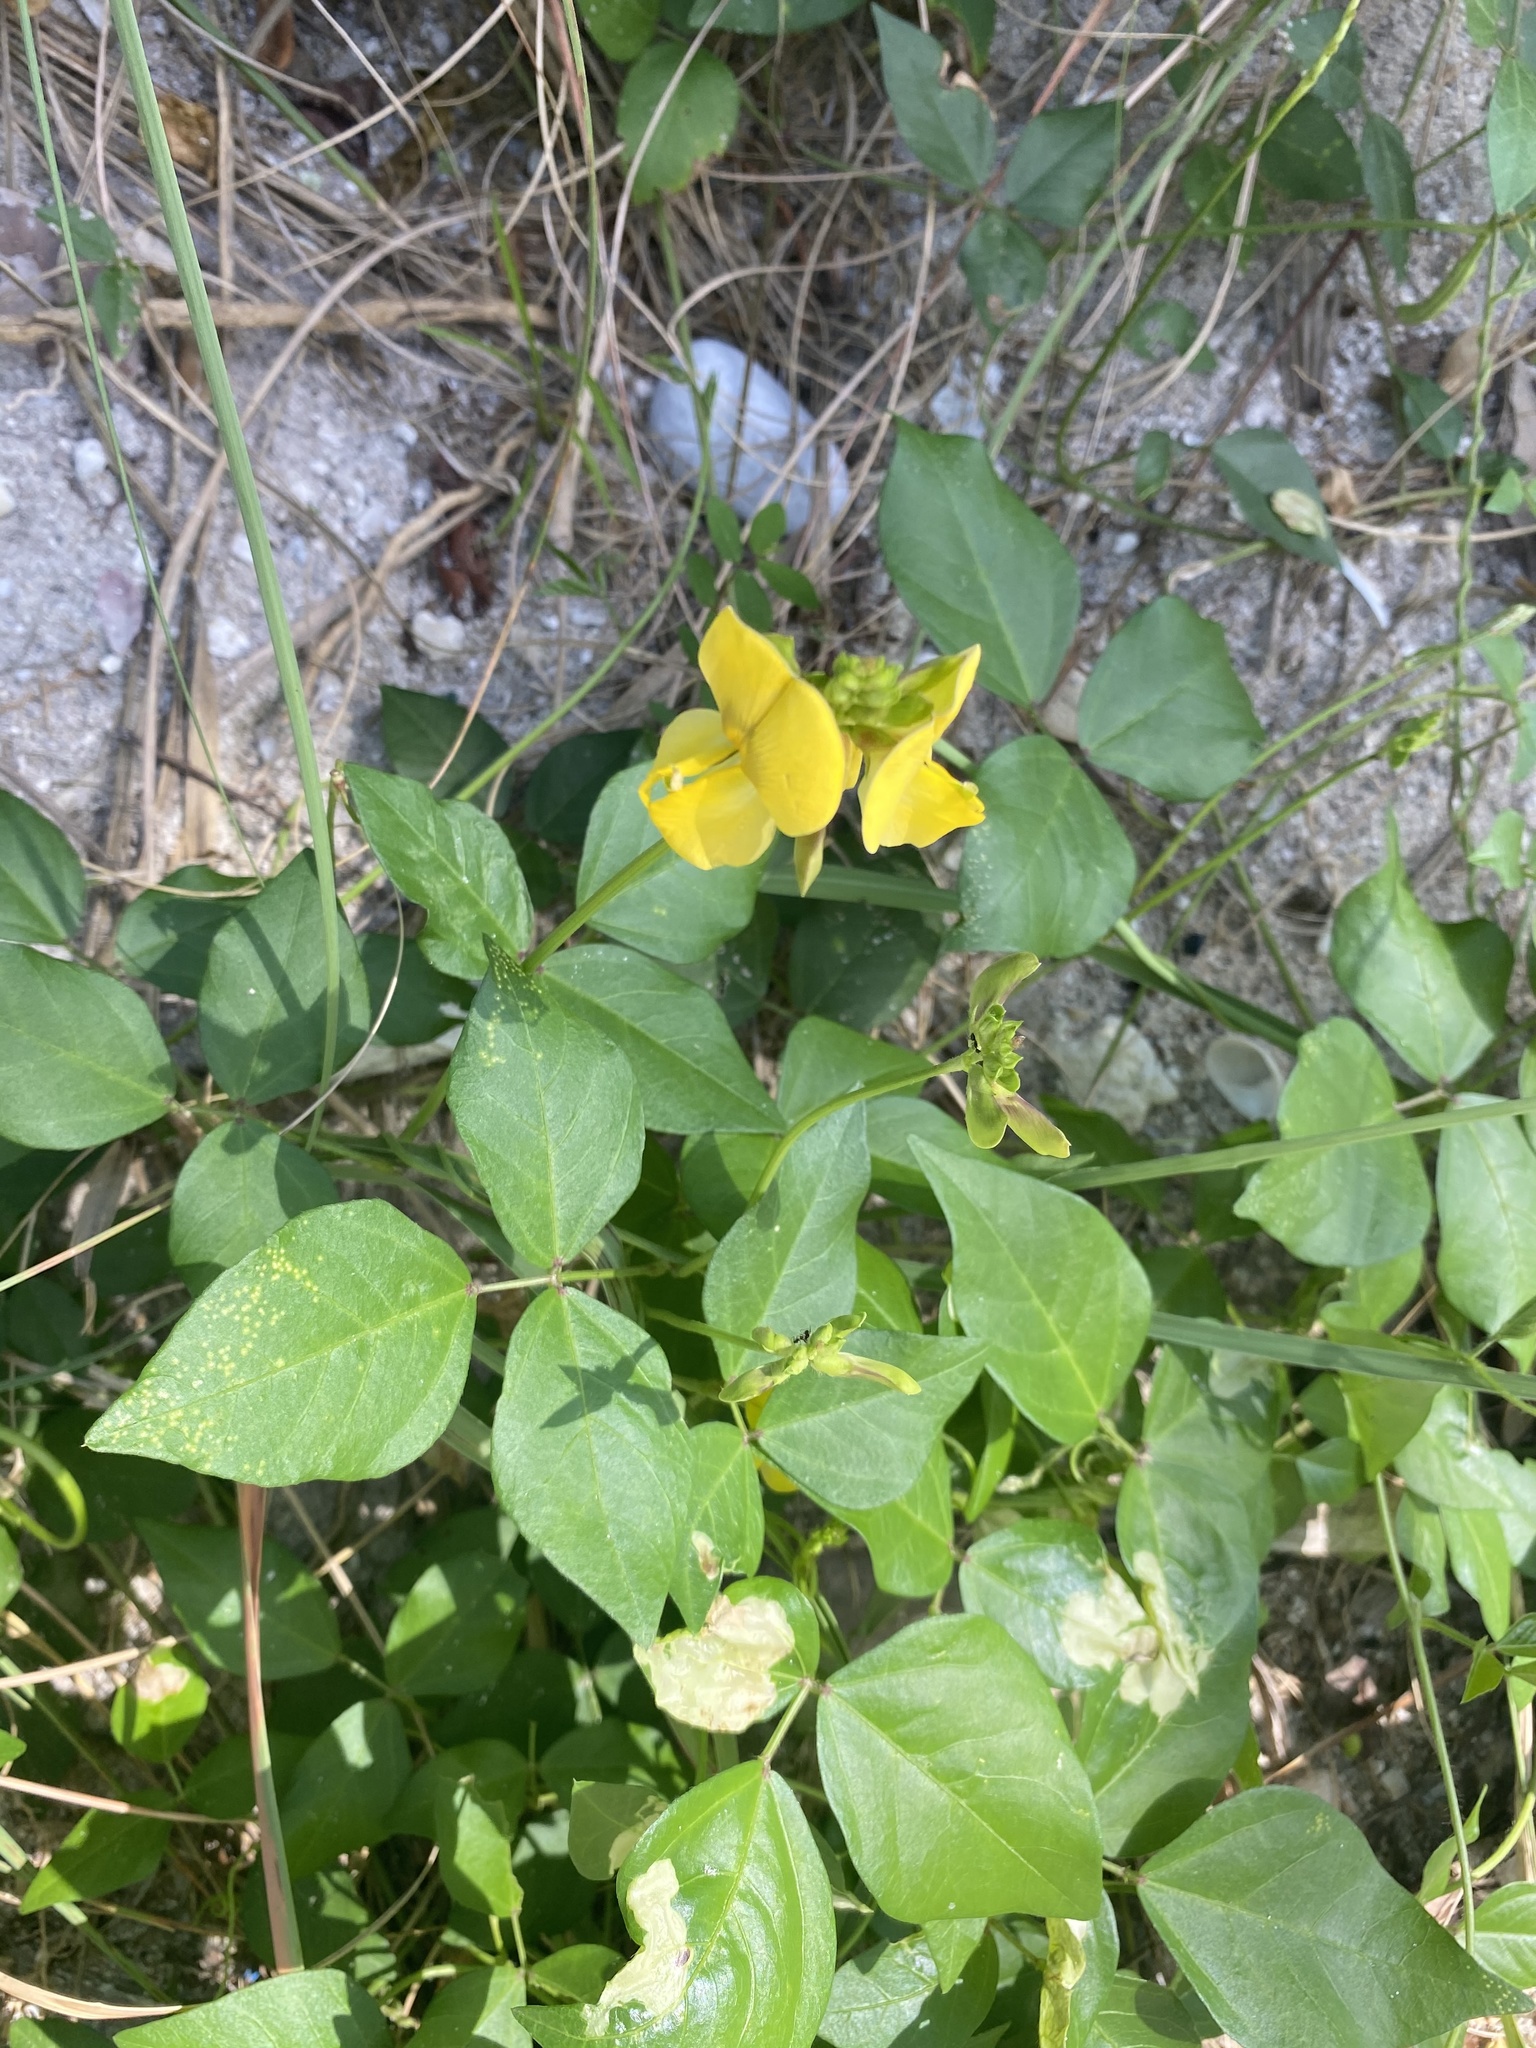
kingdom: Plantae
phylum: Tracheophyta
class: Magnoliopsida
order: Fabales
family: Fabaceae
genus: Vigna
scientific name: Vigna luteola
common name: Hairypod cowpea
